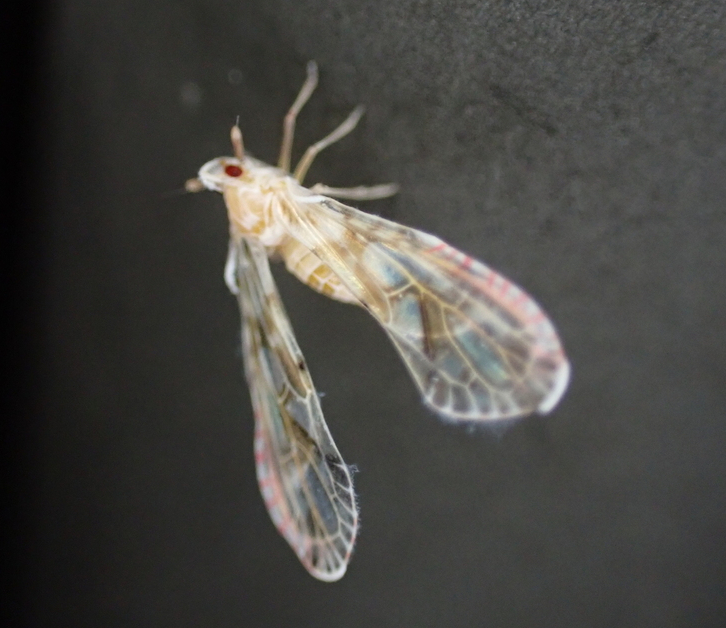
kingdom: Animalia
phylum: Arthropoda
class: Insecta
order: Hemiptera
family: Derbidae
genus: Anotia
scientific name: Anotia kirkaldyi
